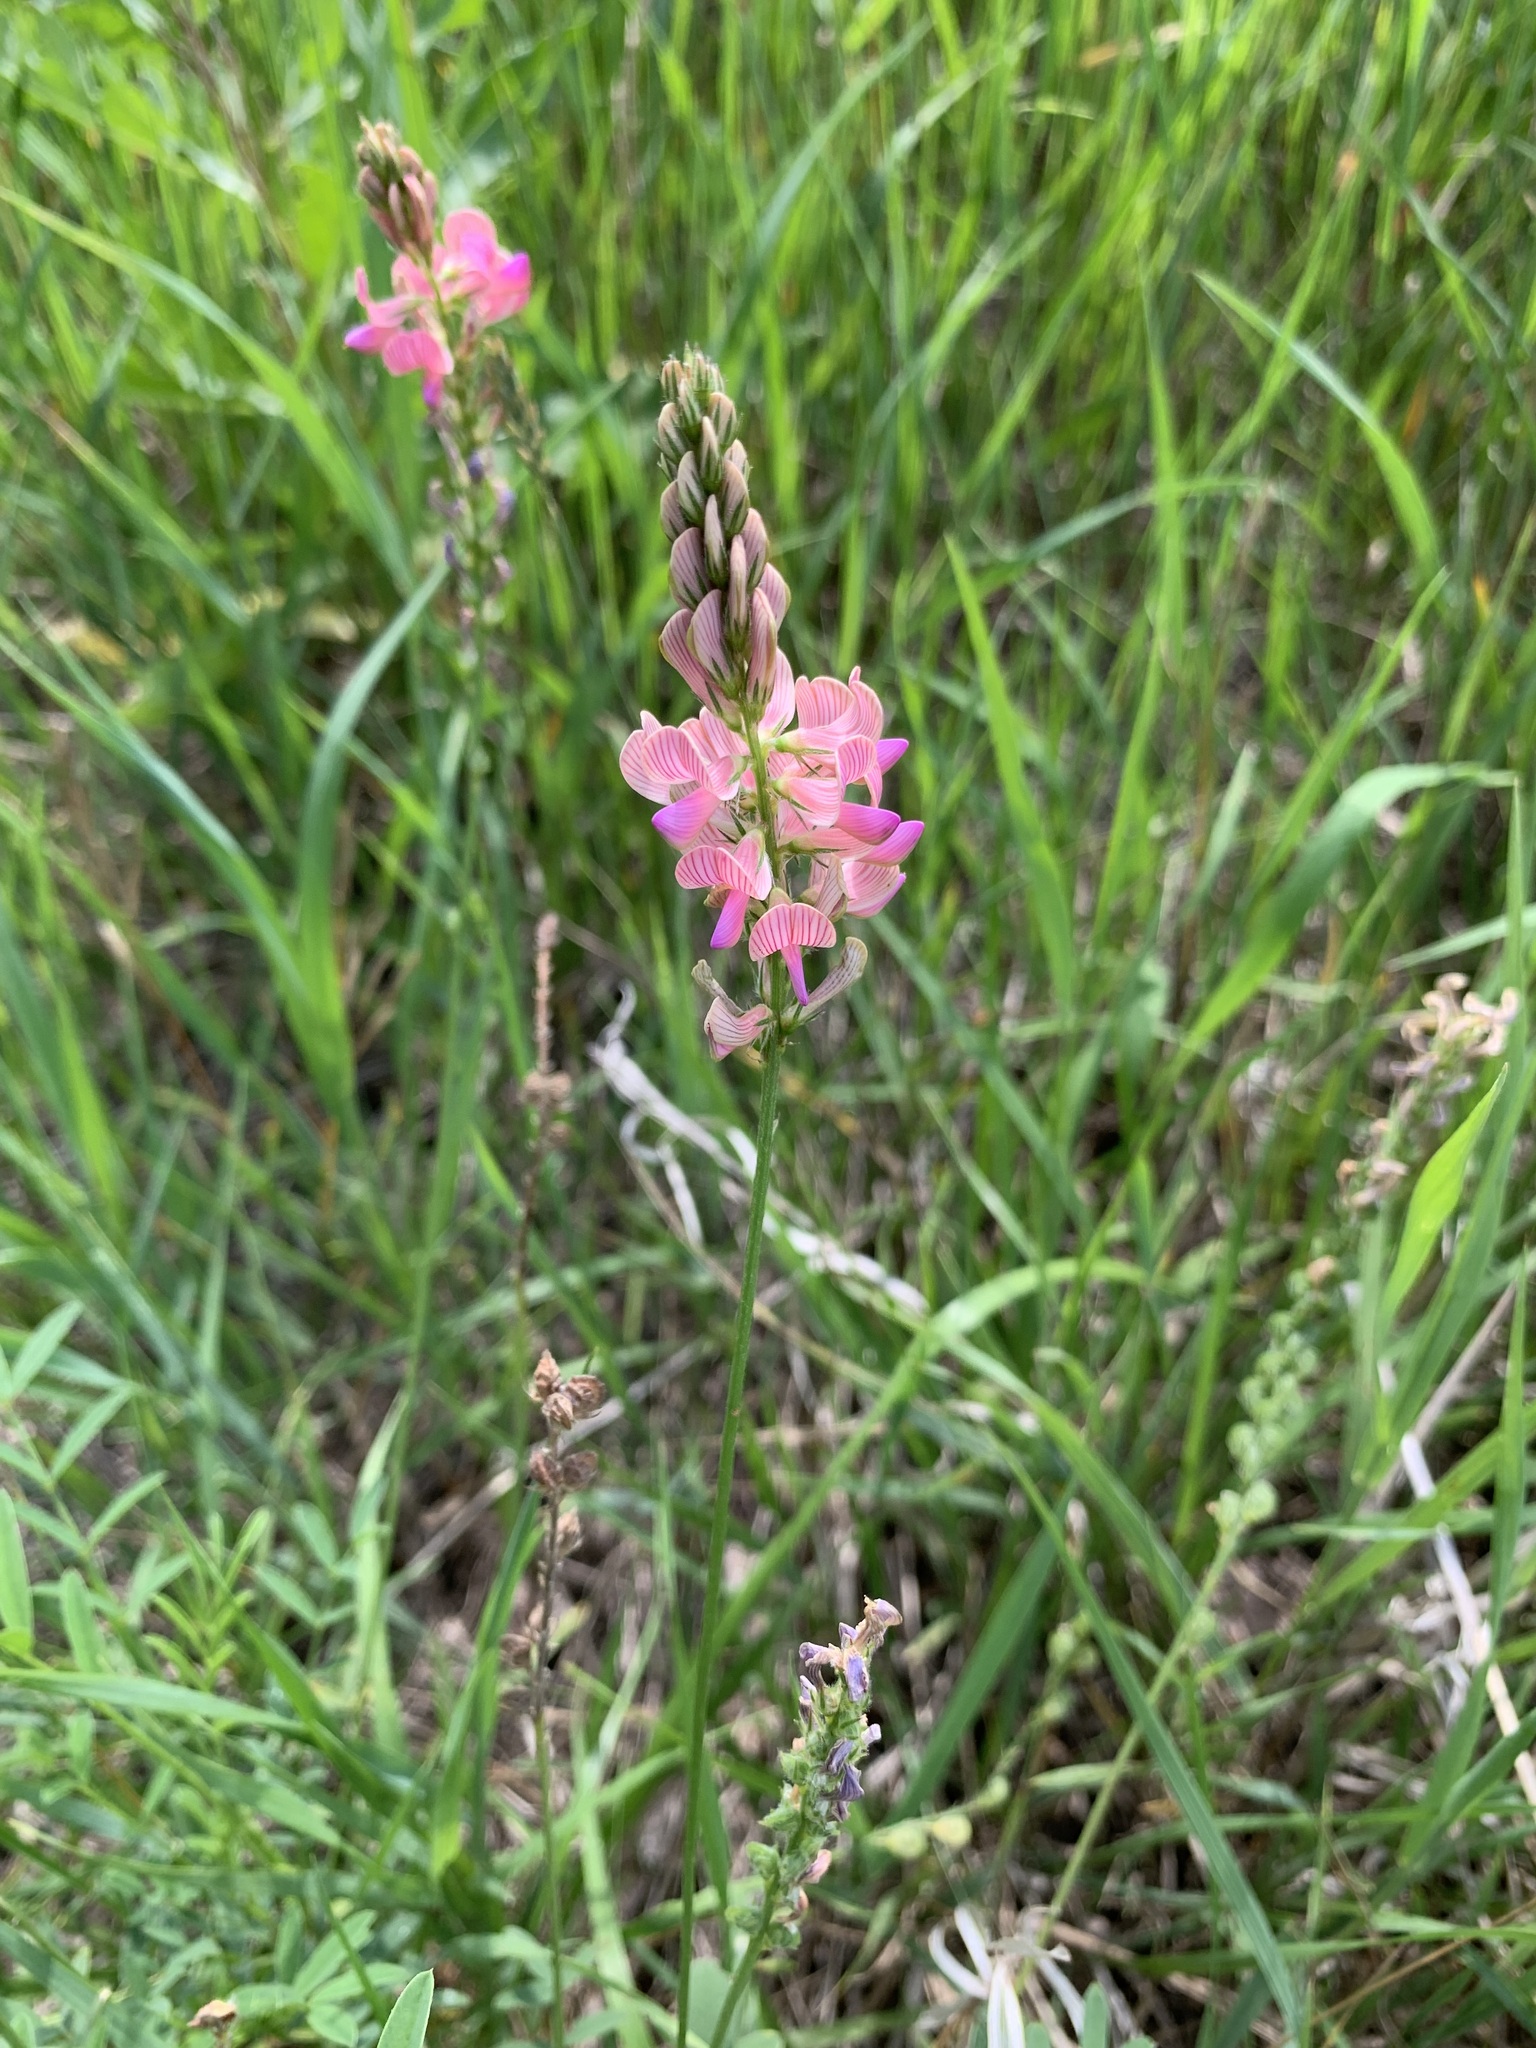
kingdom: Plantae
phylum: Tracheophyta
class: Magnoliopsida
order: Fabales
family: Fabaceae
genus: Onobrychis
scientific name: Onobrychis viciifolia
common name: Sainfoin
